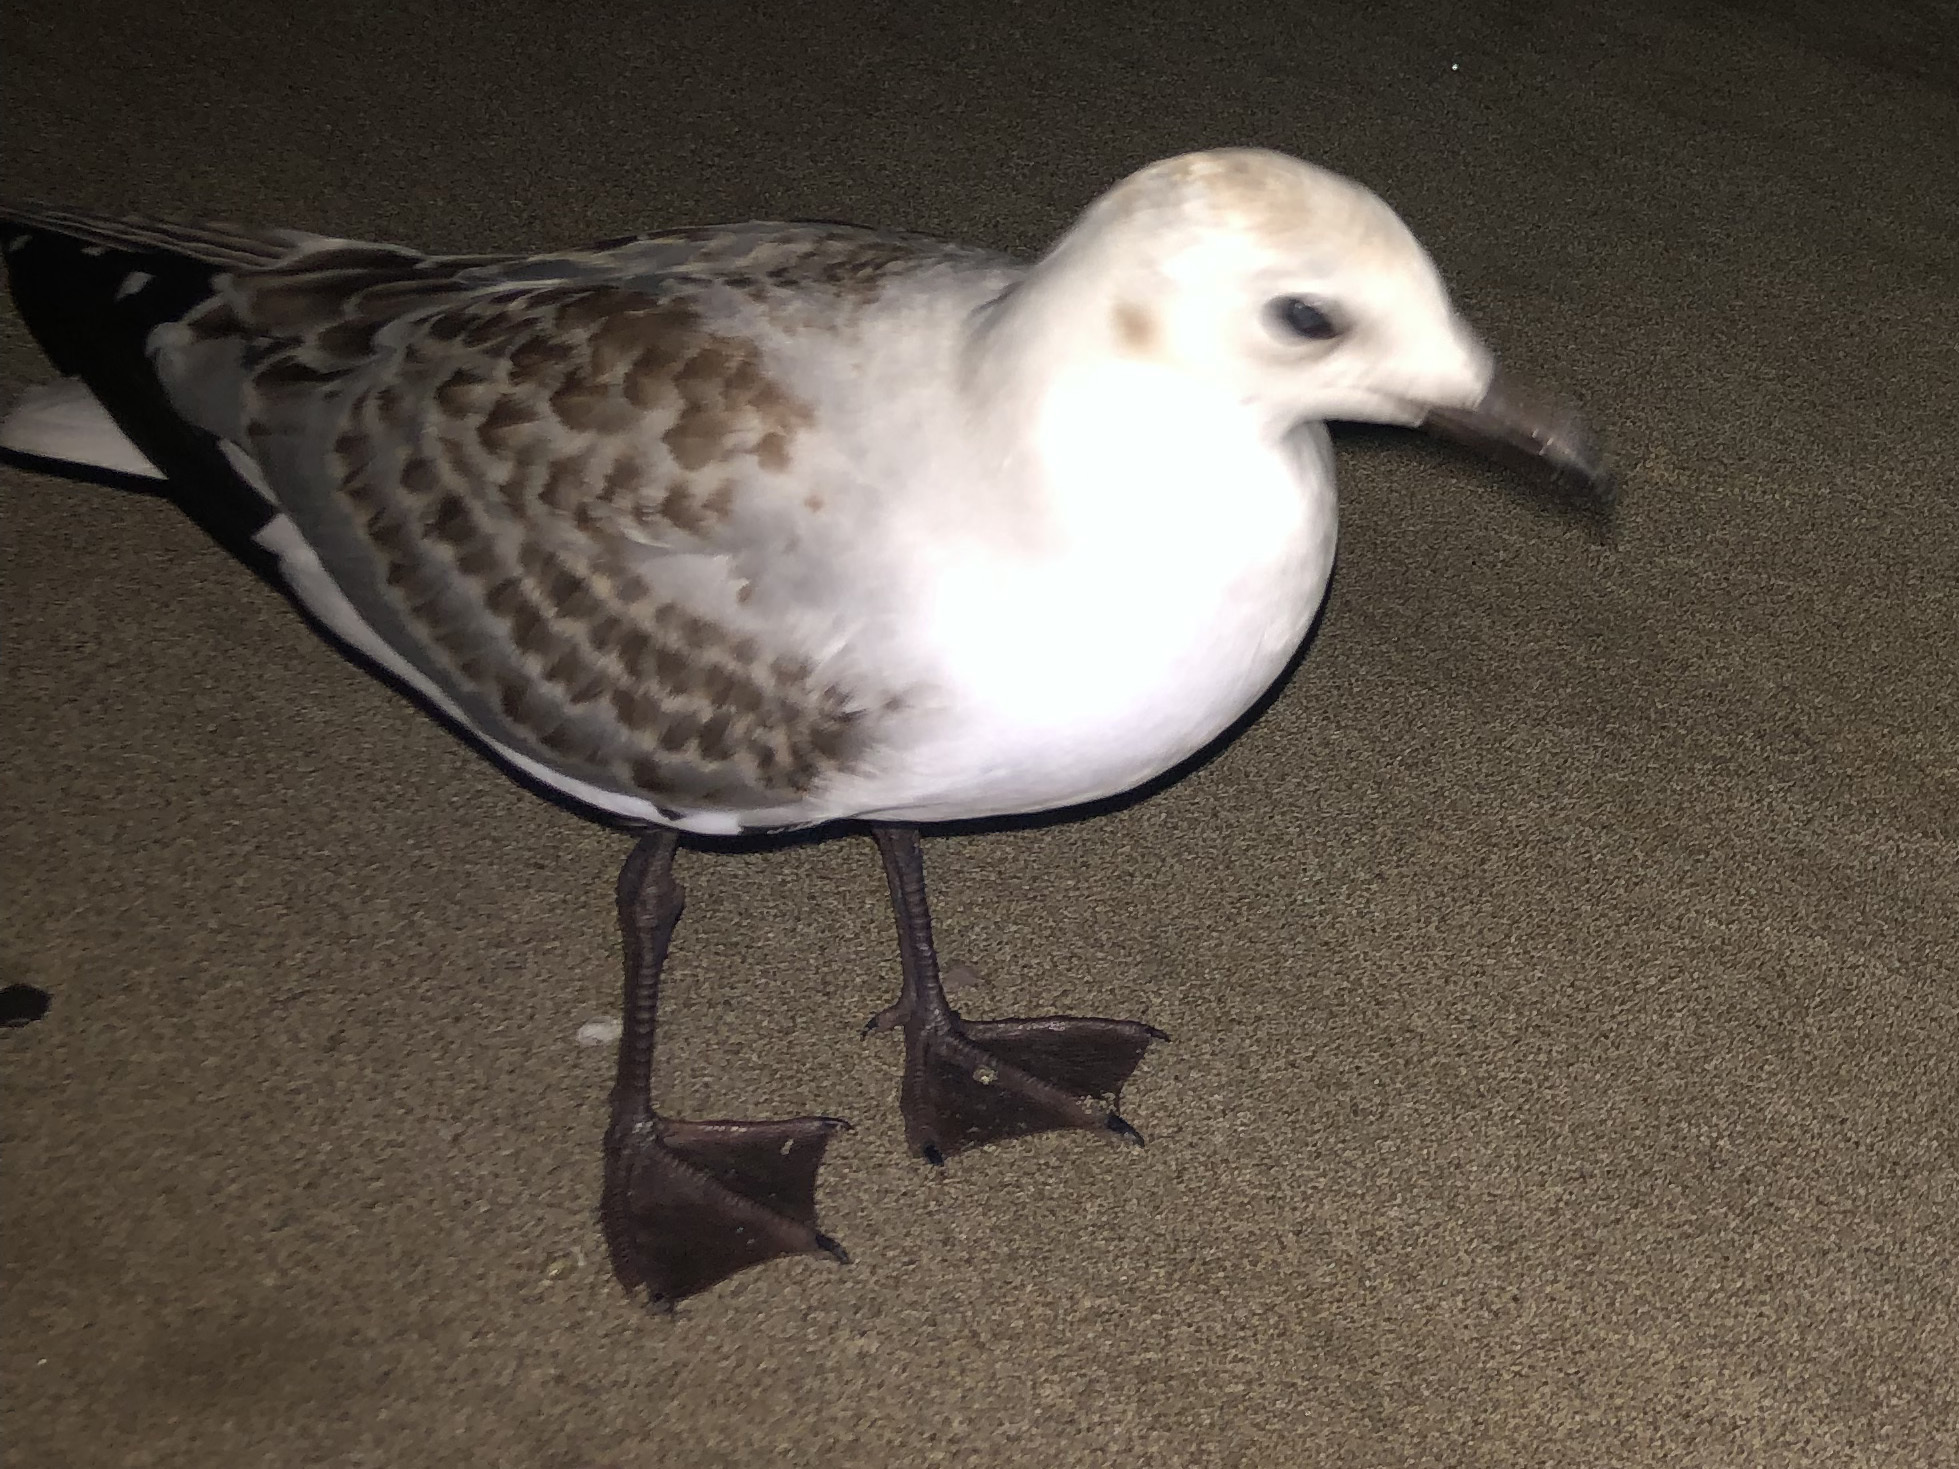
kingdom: Animalia
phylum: Chordata
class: Aves
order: Charadriiformes
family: Laridae
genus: Chroicocephalus
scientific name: Chroicocephalus novaehollandiae
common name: Silver gull
